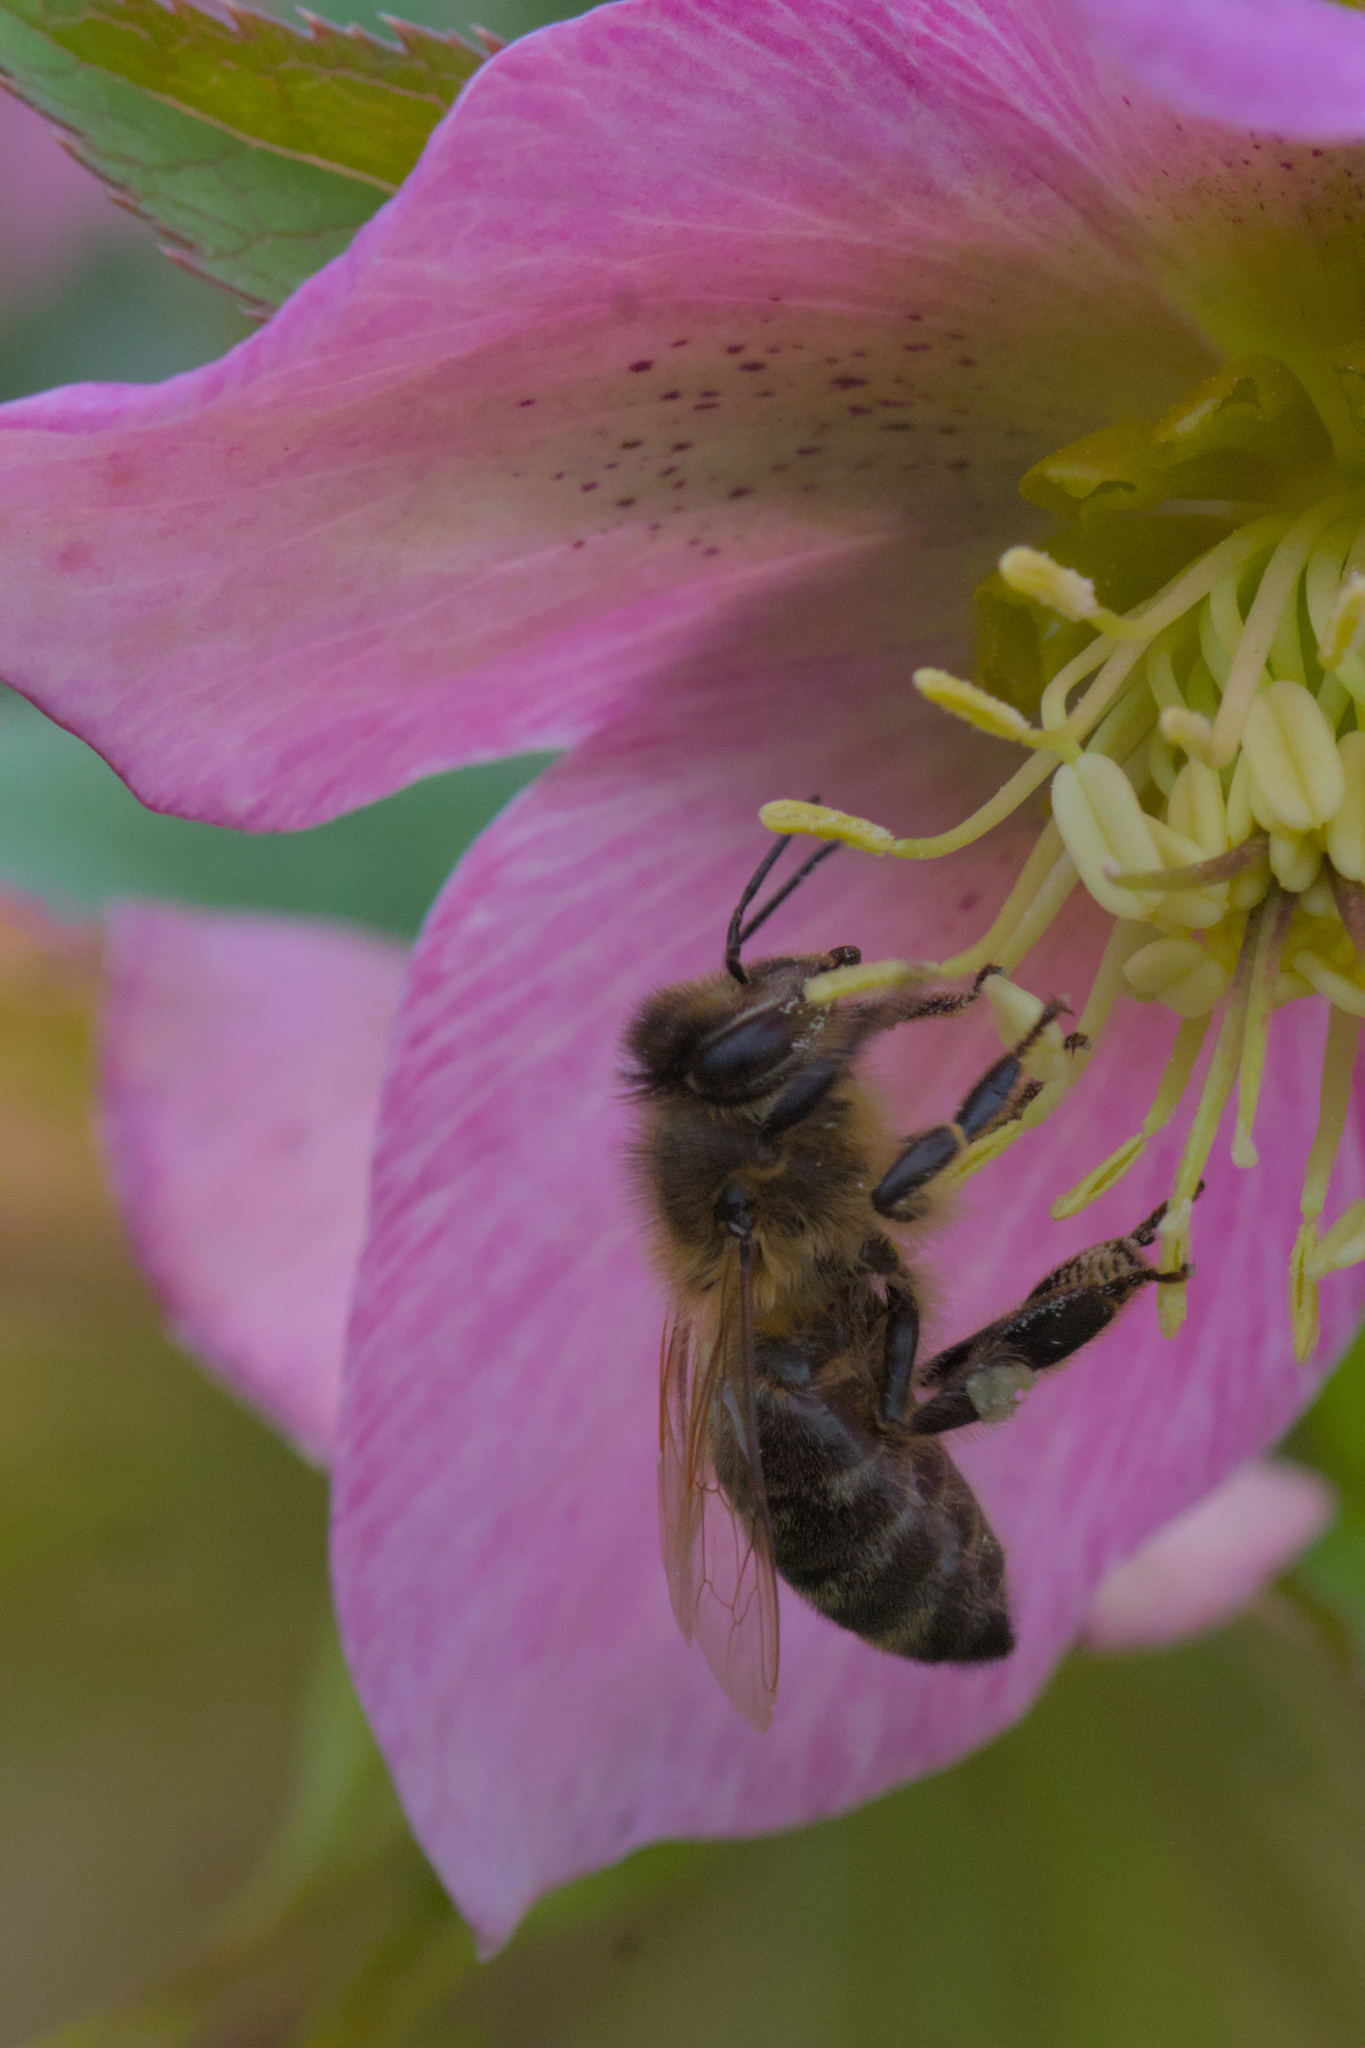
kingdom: Animalia
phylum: Arthropoda
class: Insecta
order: Hymenoptera
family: Apidae
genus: Apis
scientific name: Apis mellifera
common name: Honey bee
